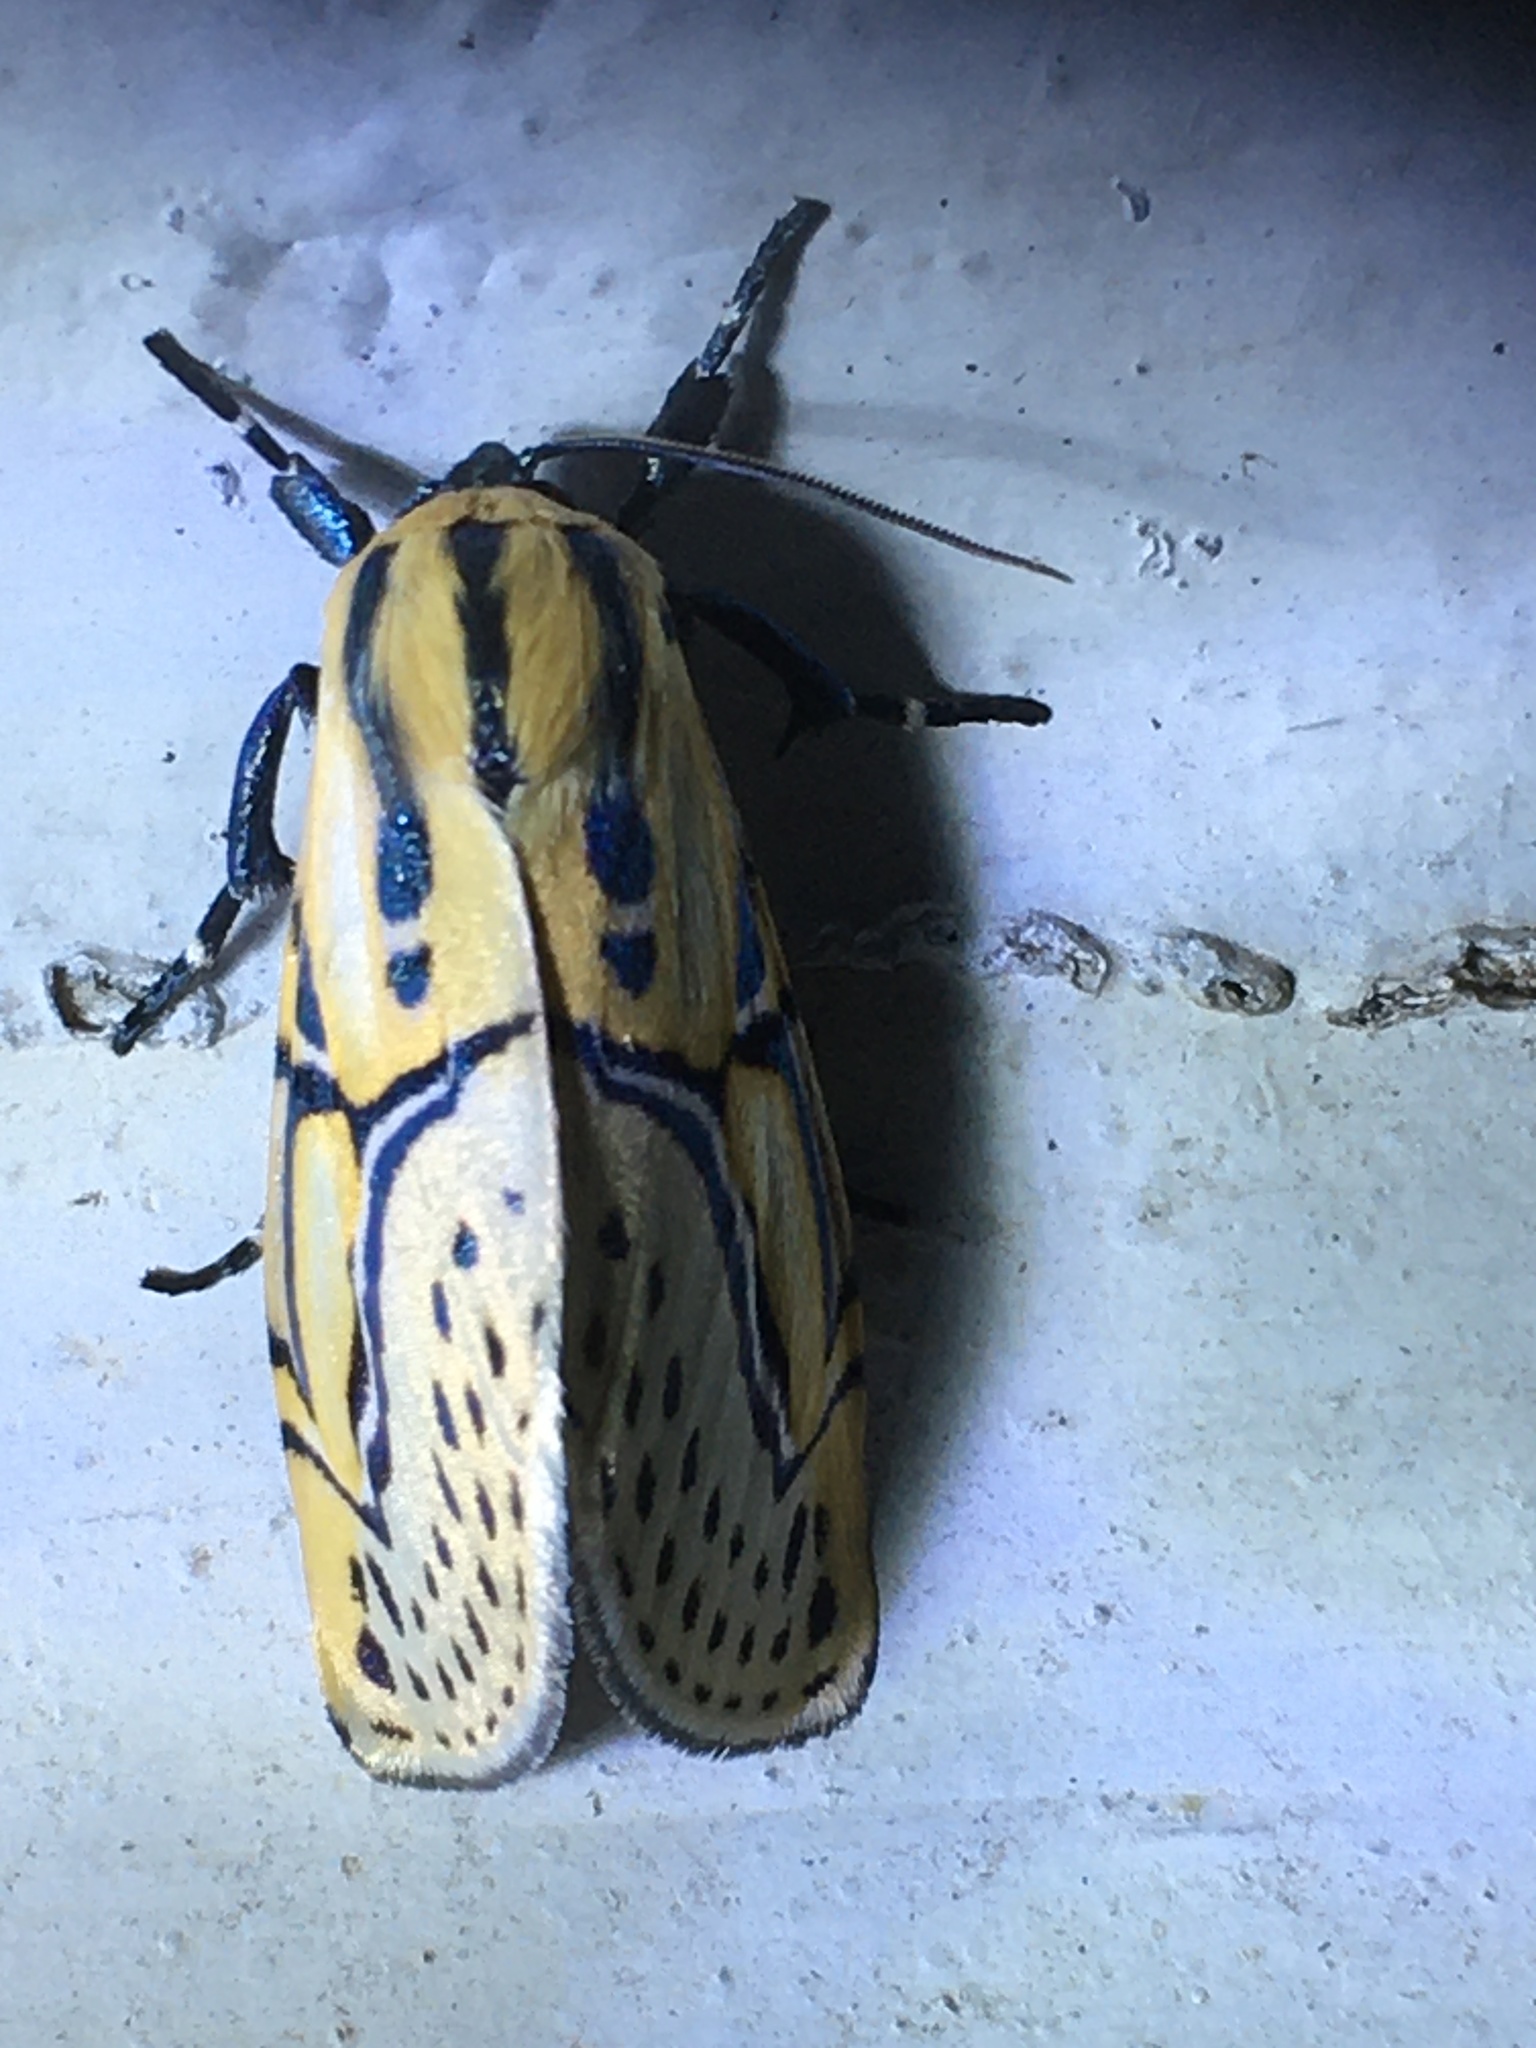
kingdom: Animalia
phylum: Arthropoda
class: Insecta
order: Lepidoptera
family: Erebidae
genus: Diphthera
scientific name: Diphthera festiva
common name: Hieroglyphic moth
